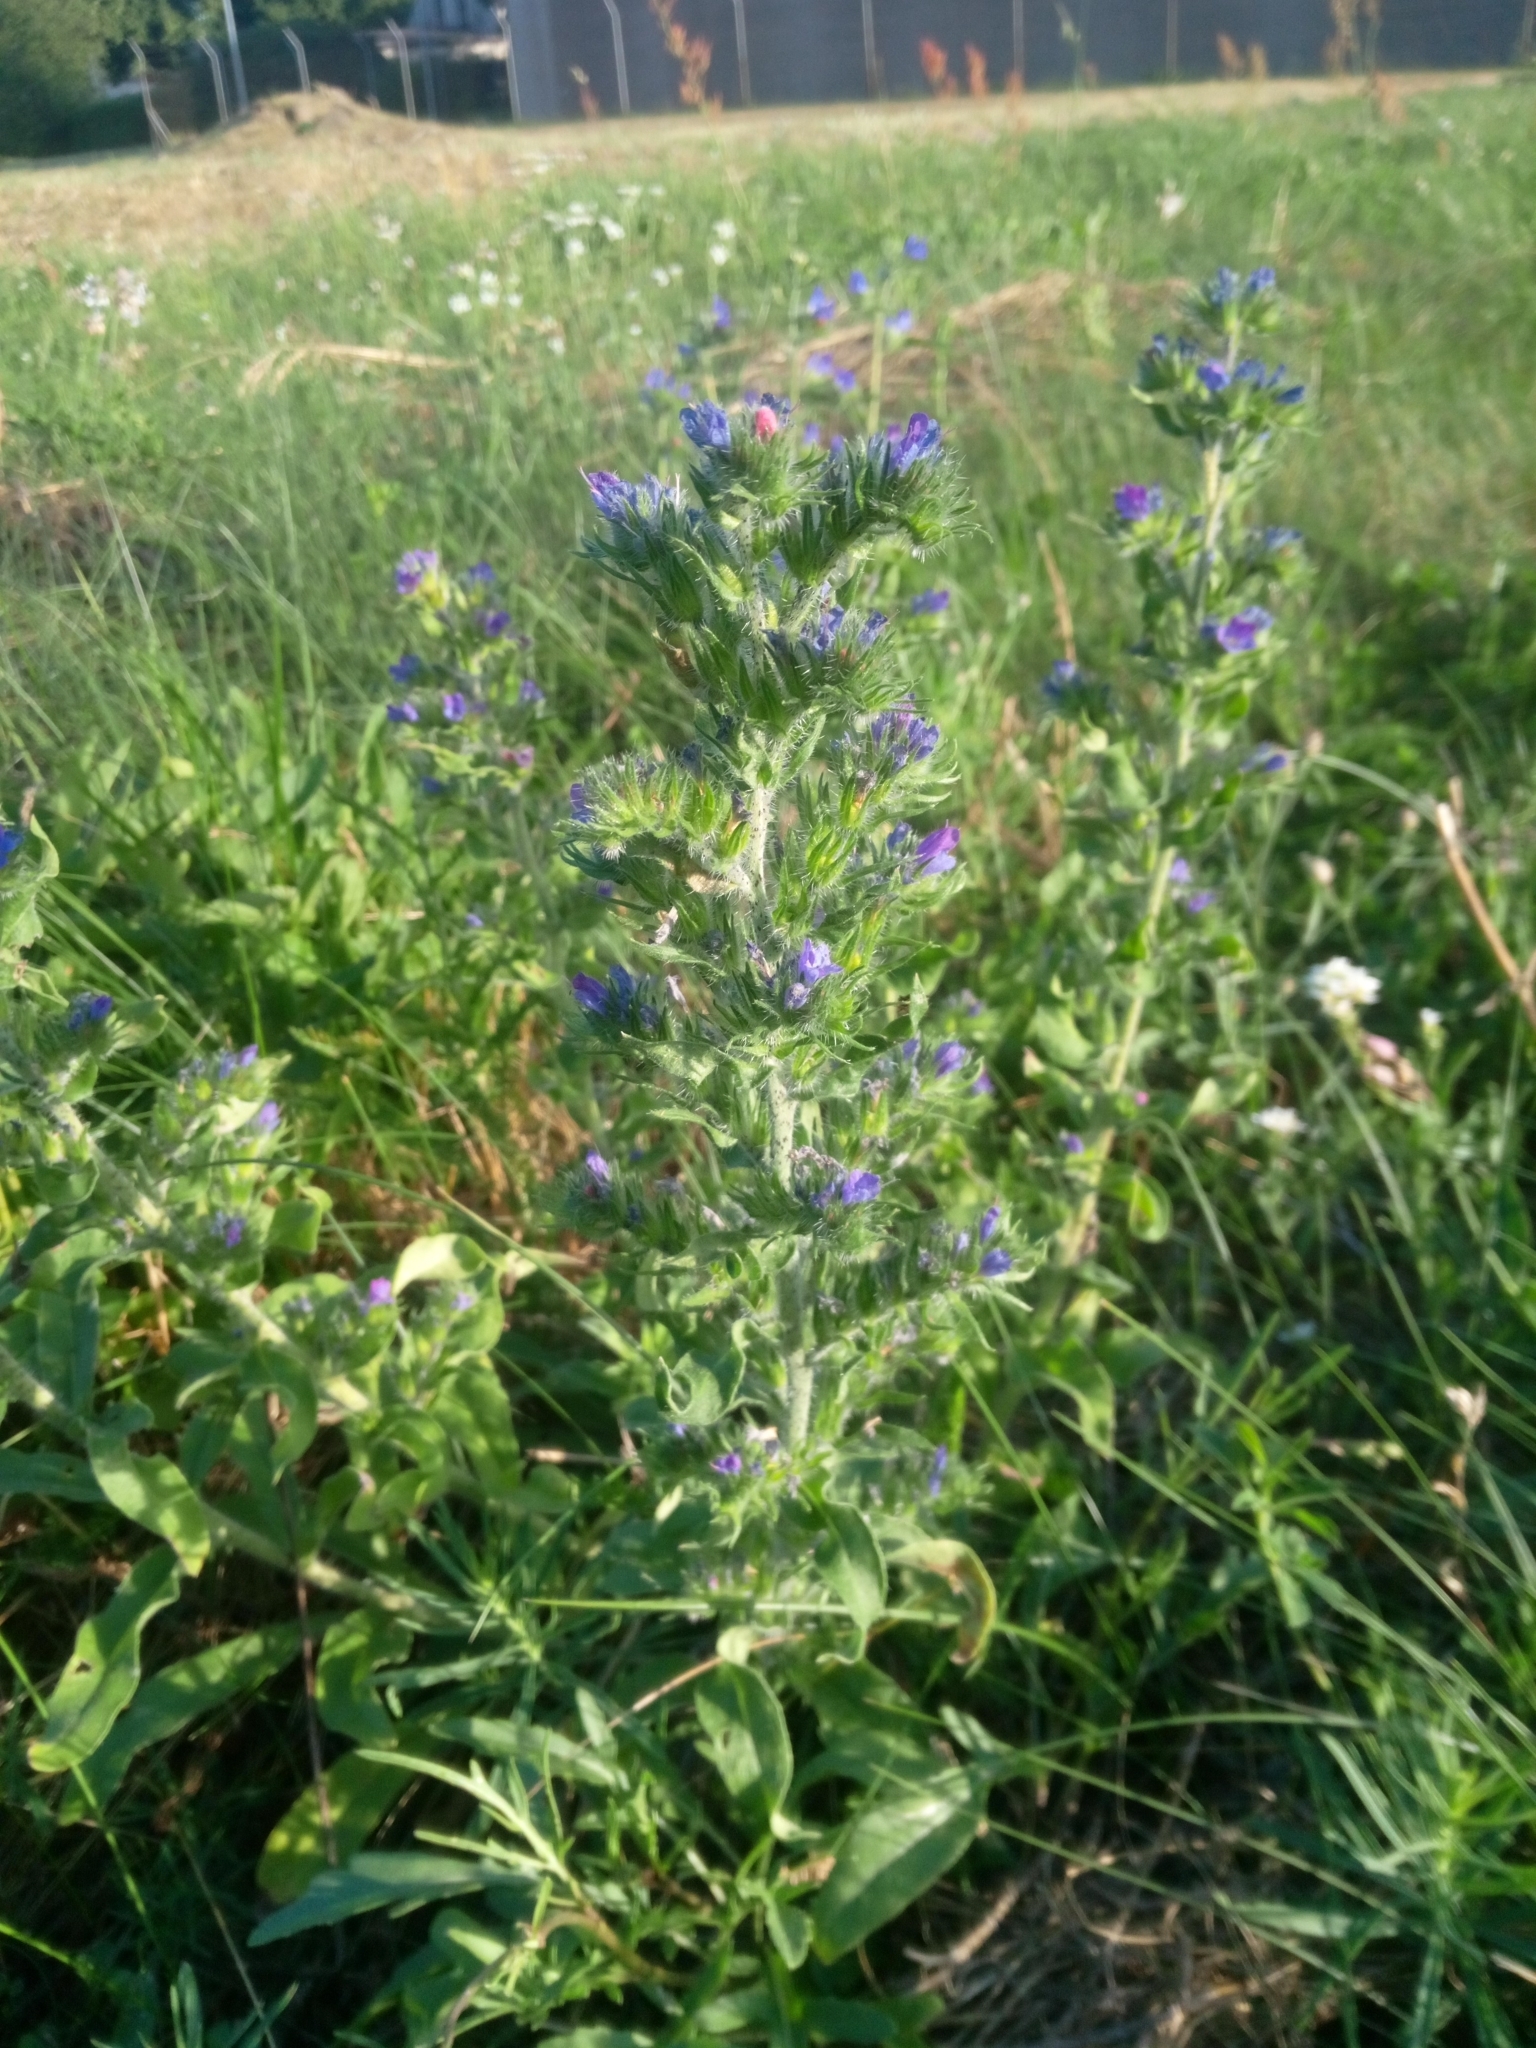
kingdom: Plantae
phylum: Tracheophyta
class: Magnoliopsida
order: Boraginales
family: Boraginaceae
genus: Echium
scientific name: Echium vulgare
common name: Common viper's bugloss
